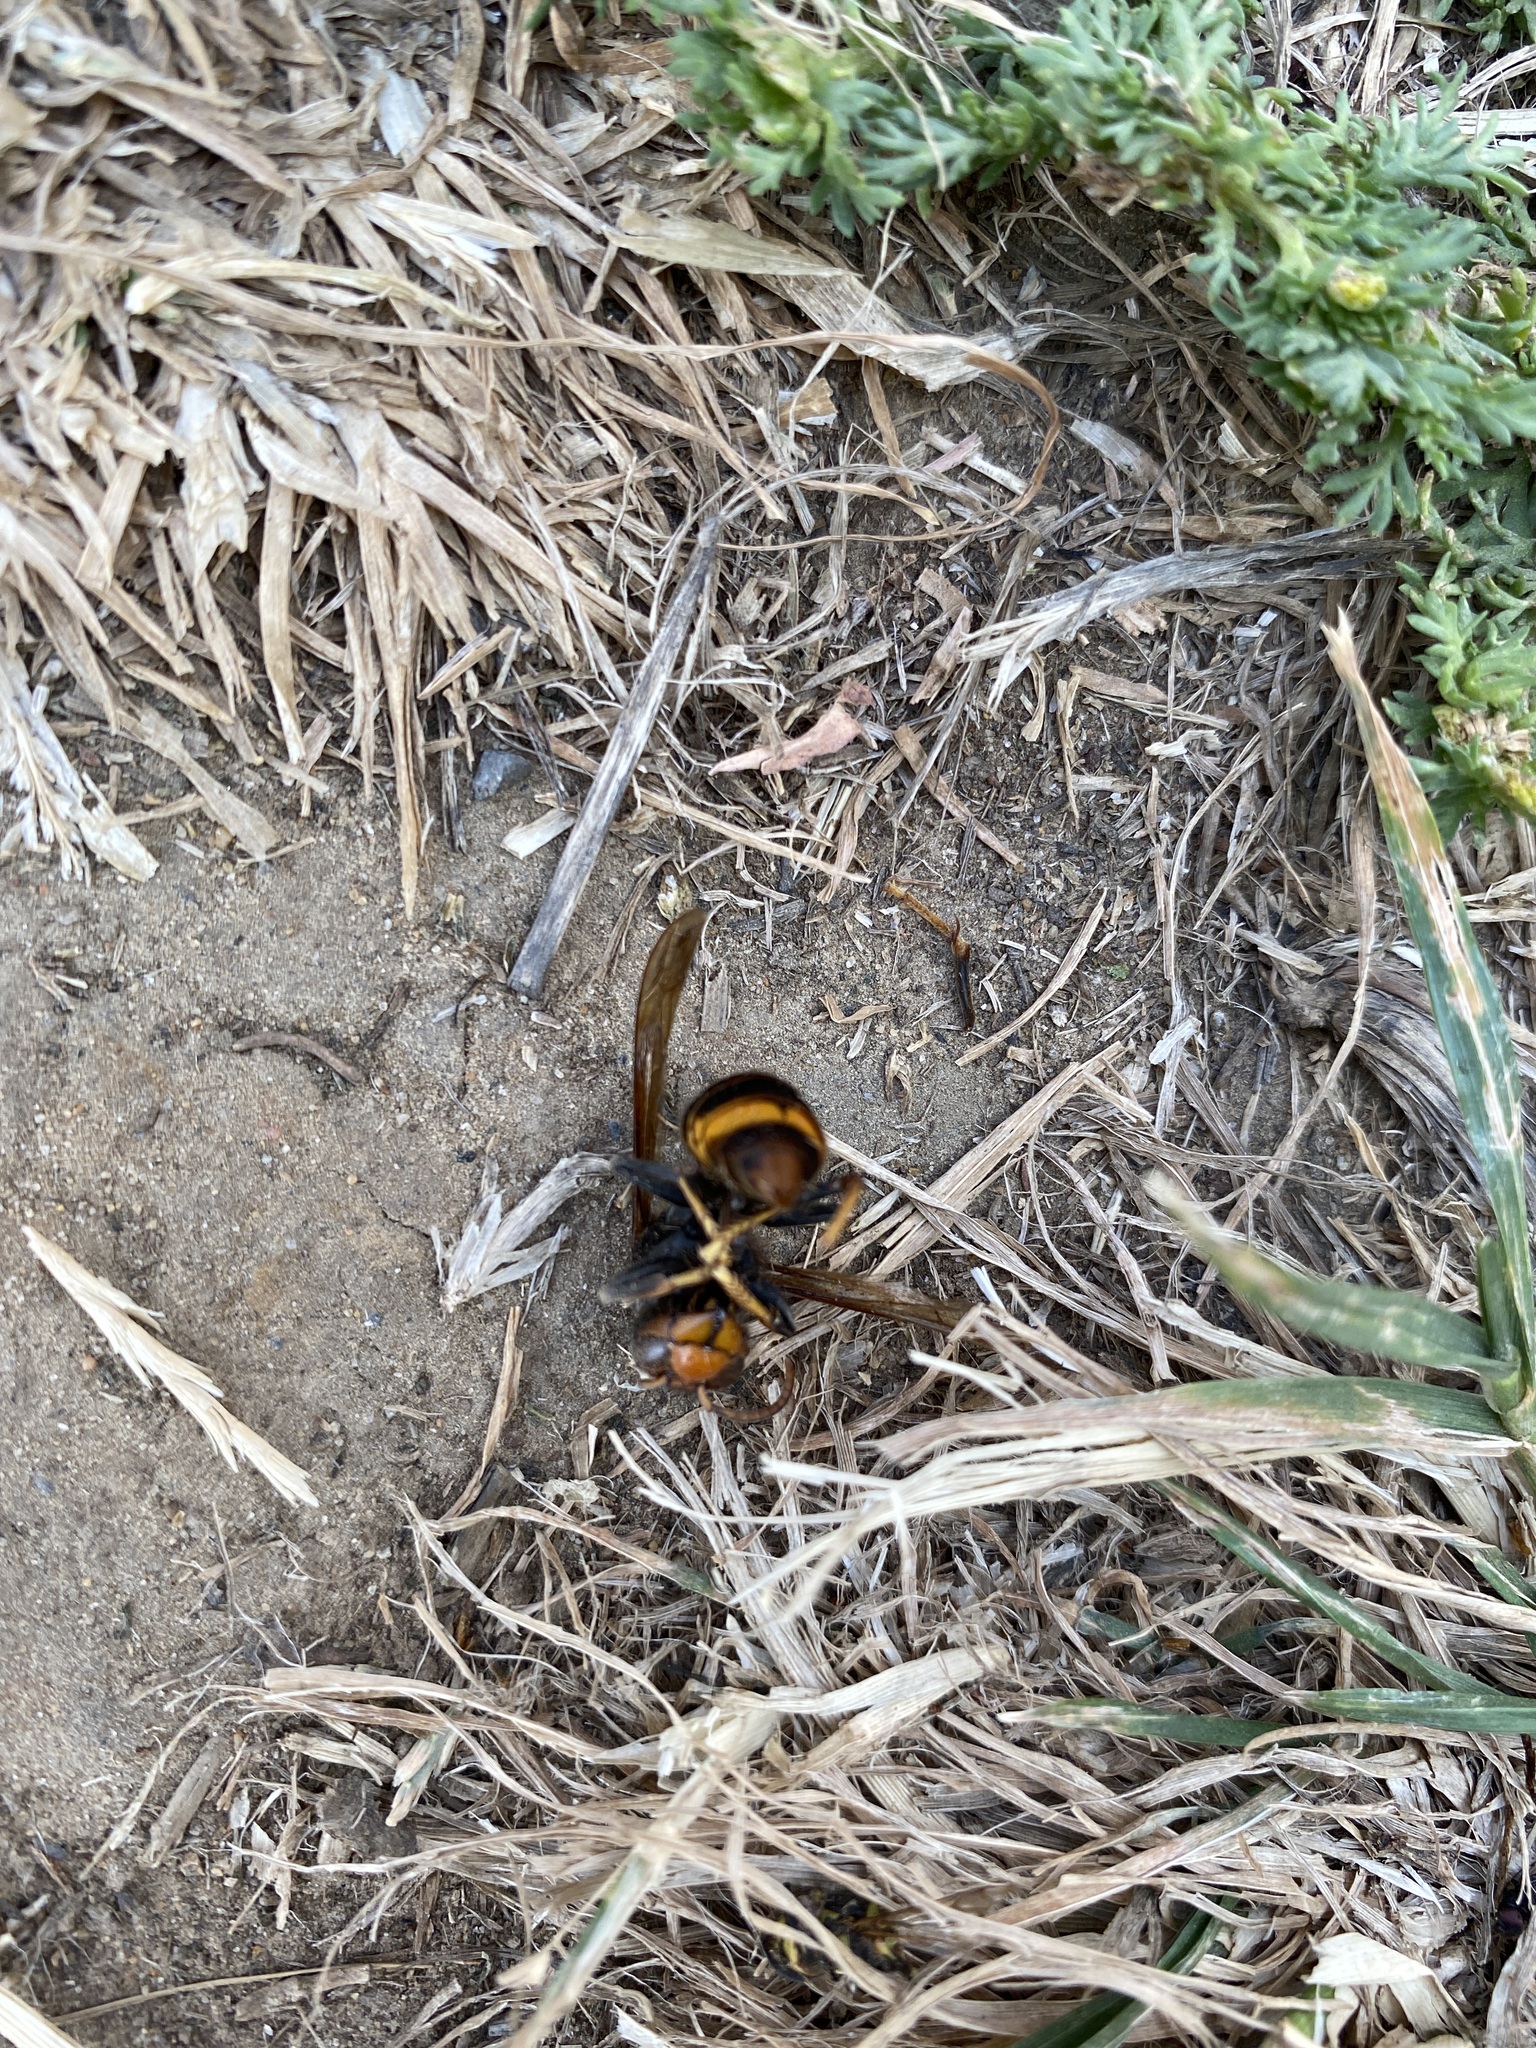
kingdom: Animalia
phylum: Arthropoda
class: Insecta
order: Hymenoptera
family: Vespidae
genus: Vespa
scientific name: Vespa velutina
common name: Asian hornet
